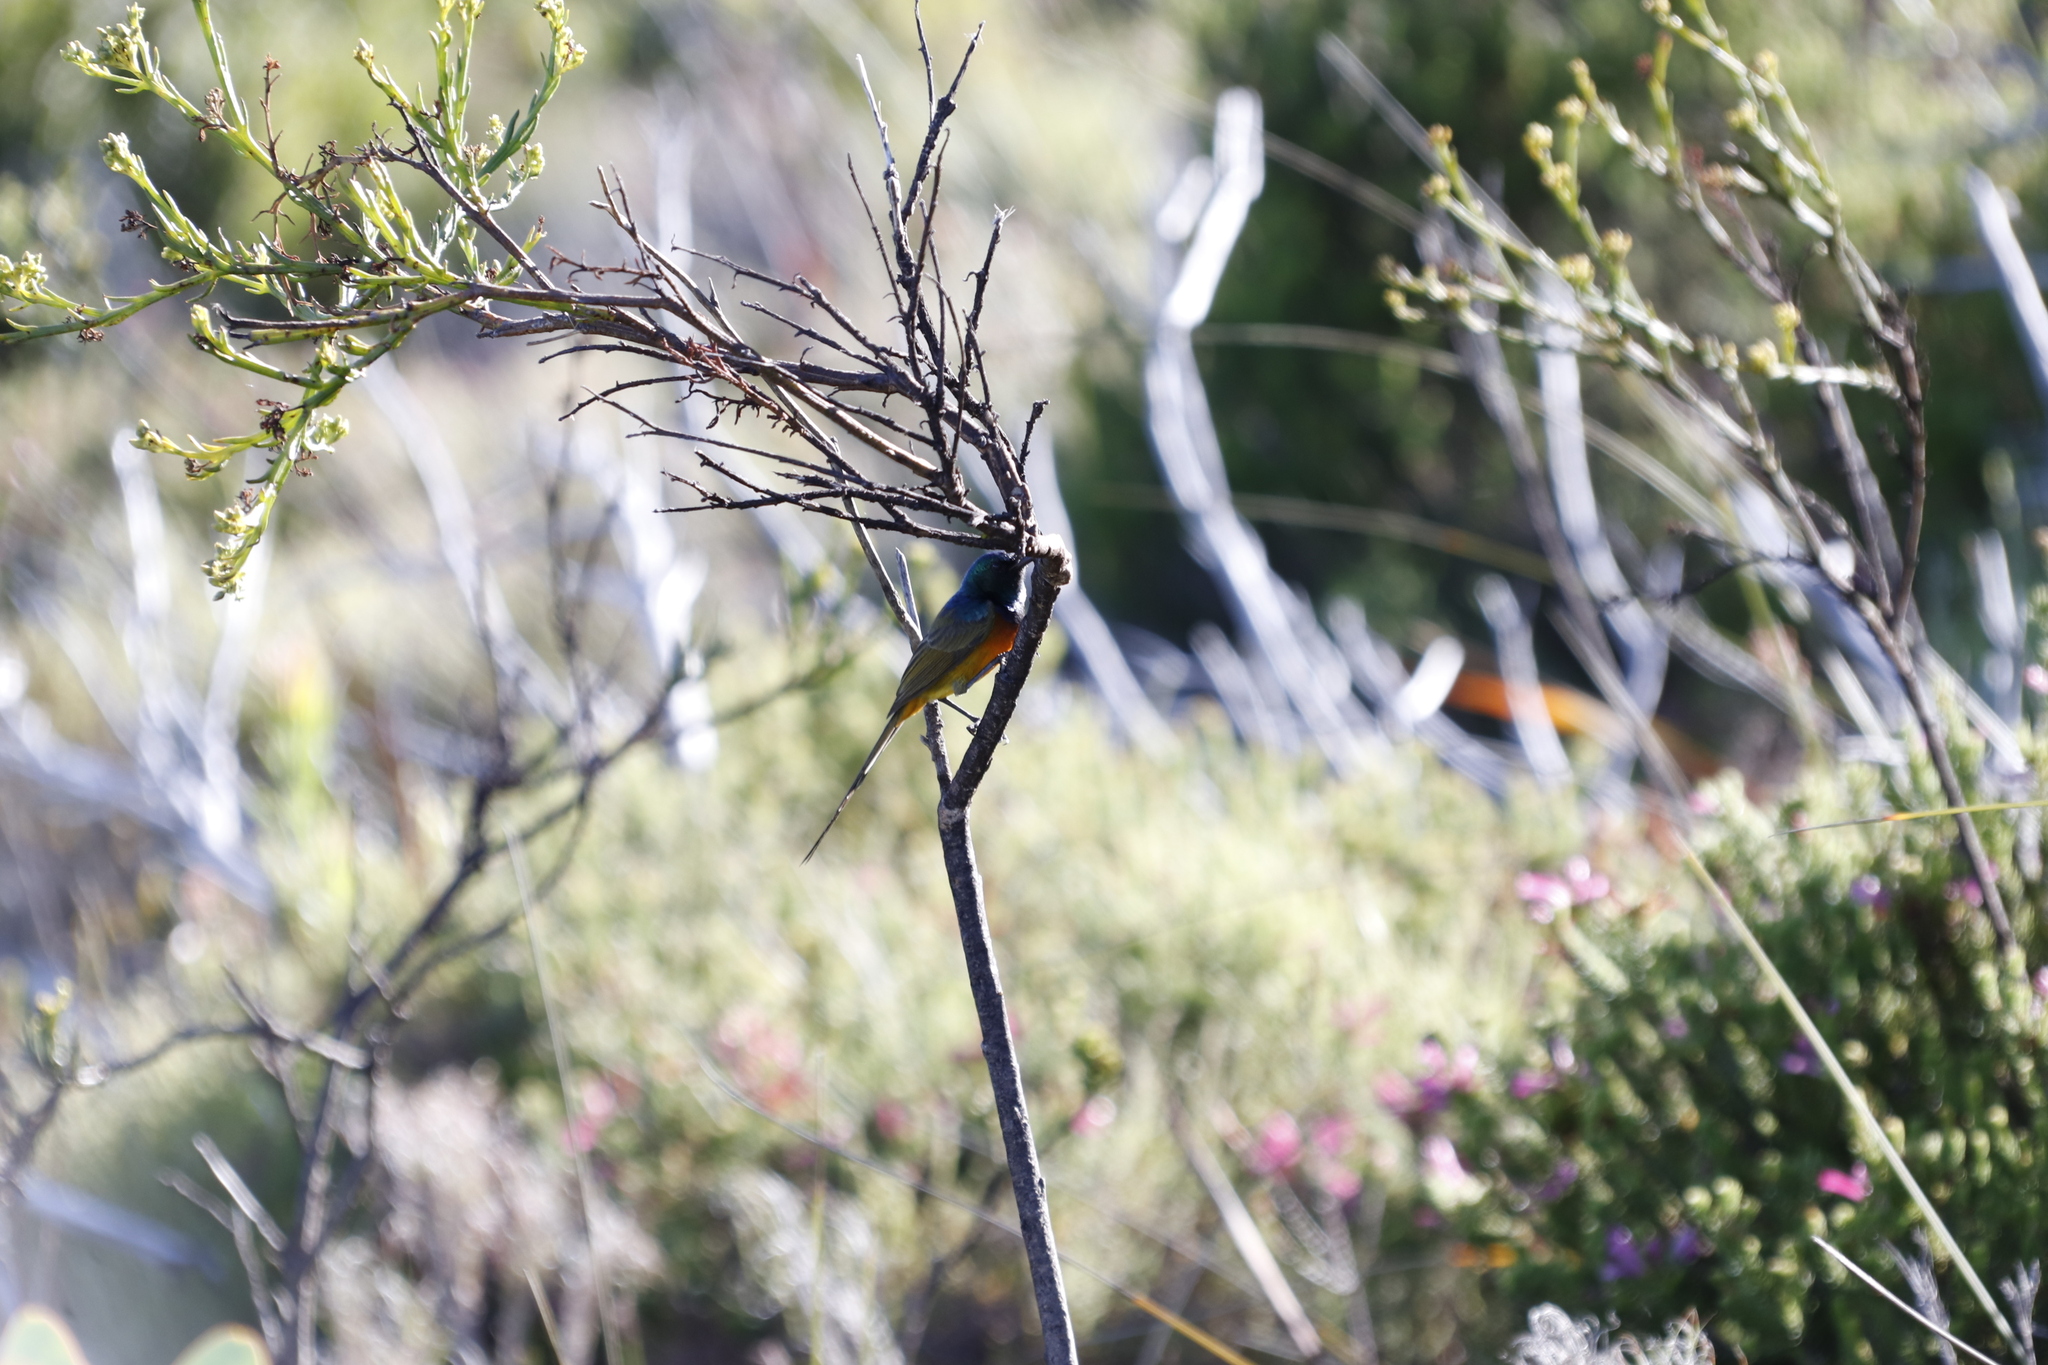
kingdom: Plantae
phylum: Tracheophyta
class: Magnoliopsida
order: Santalales
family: Thesiaceae
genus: Thesium
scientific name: Thesium strictum
